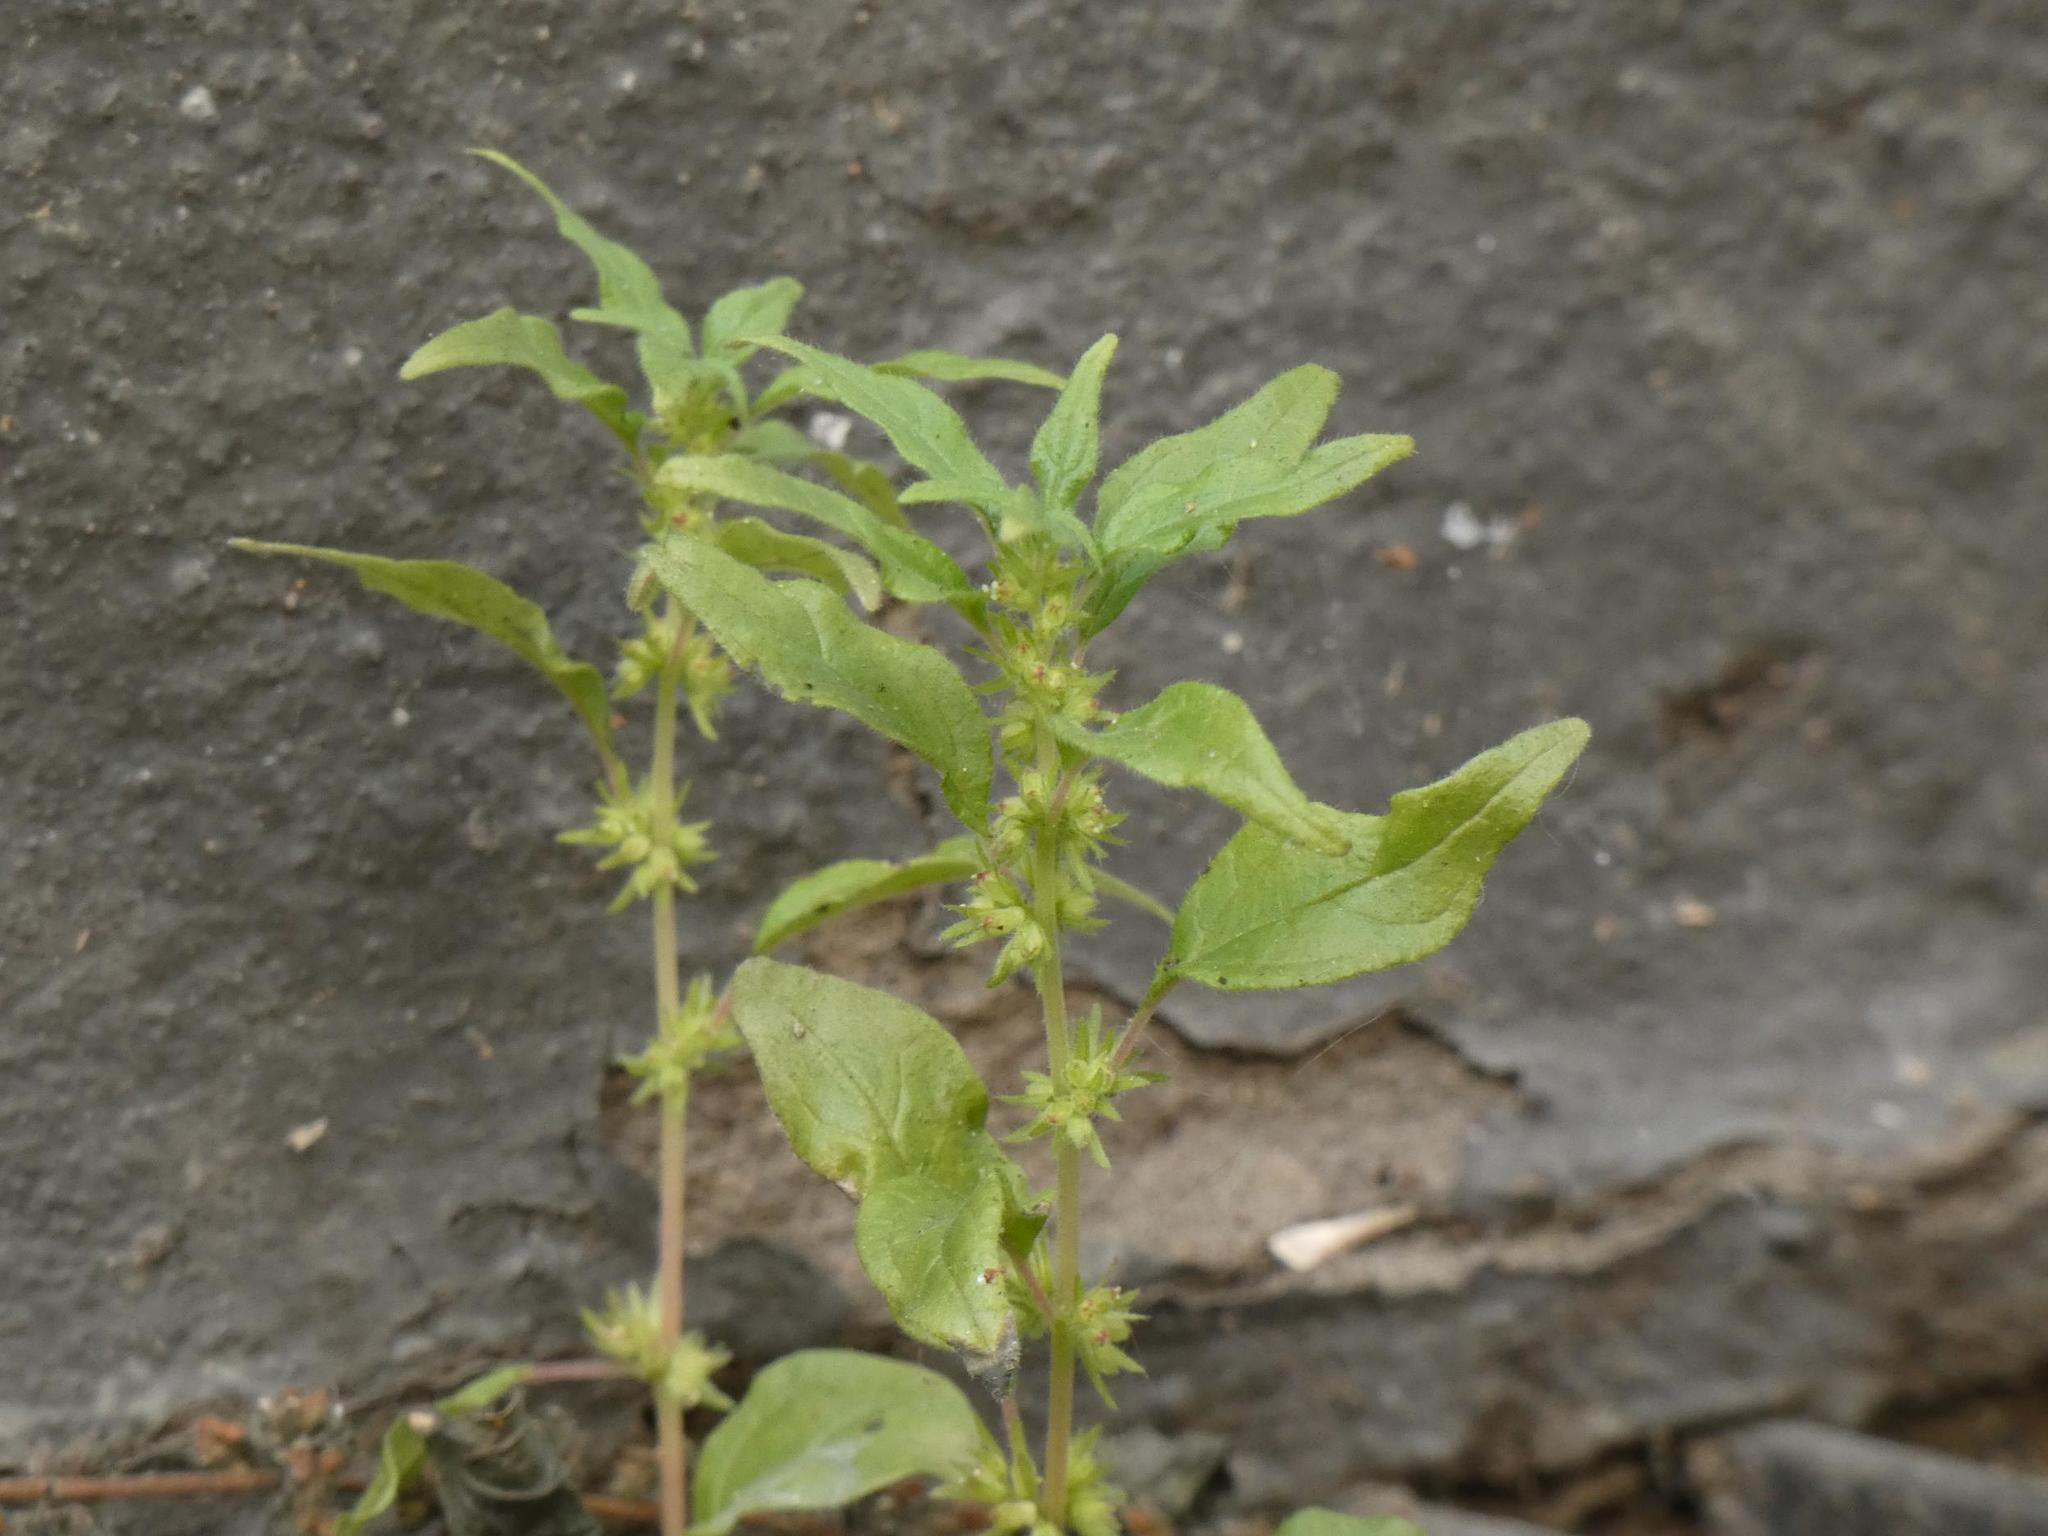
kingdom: Plantae
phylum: Tracheophyta
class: Magnoliopsida
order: Rosales
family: Urticaceae
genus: Parietaria
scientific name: Parietaria pensylvanica
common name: Pennsylvania pellitory
